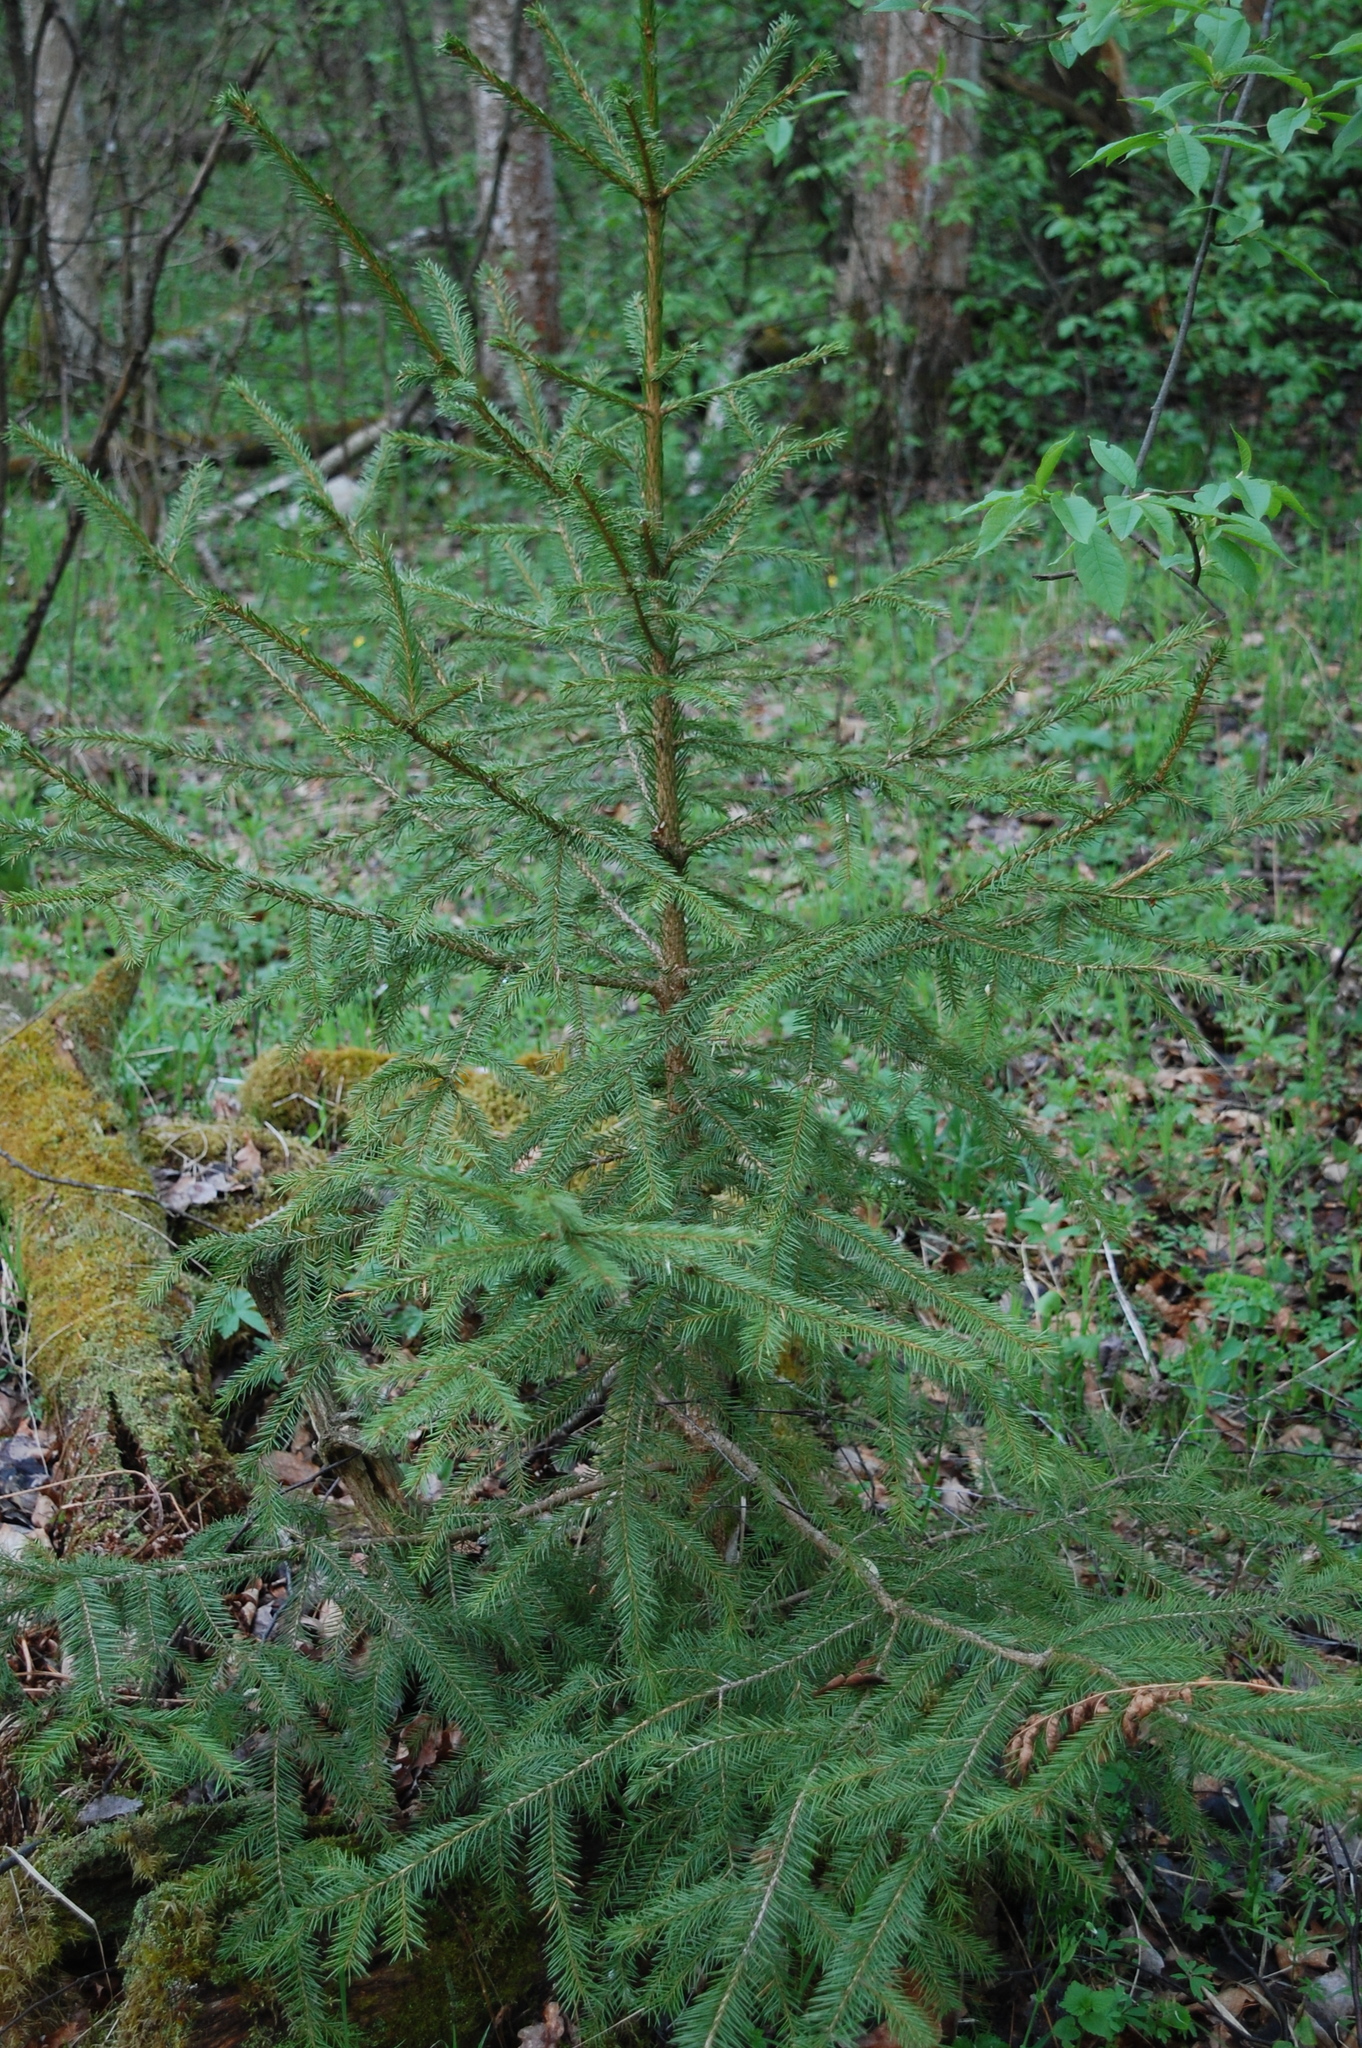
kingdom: Plantae
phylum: Tracheophyta
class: Pinopsida
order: Pinales
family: Pinaceae
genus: Picea
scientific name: Picea abies
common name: Norway spruce
